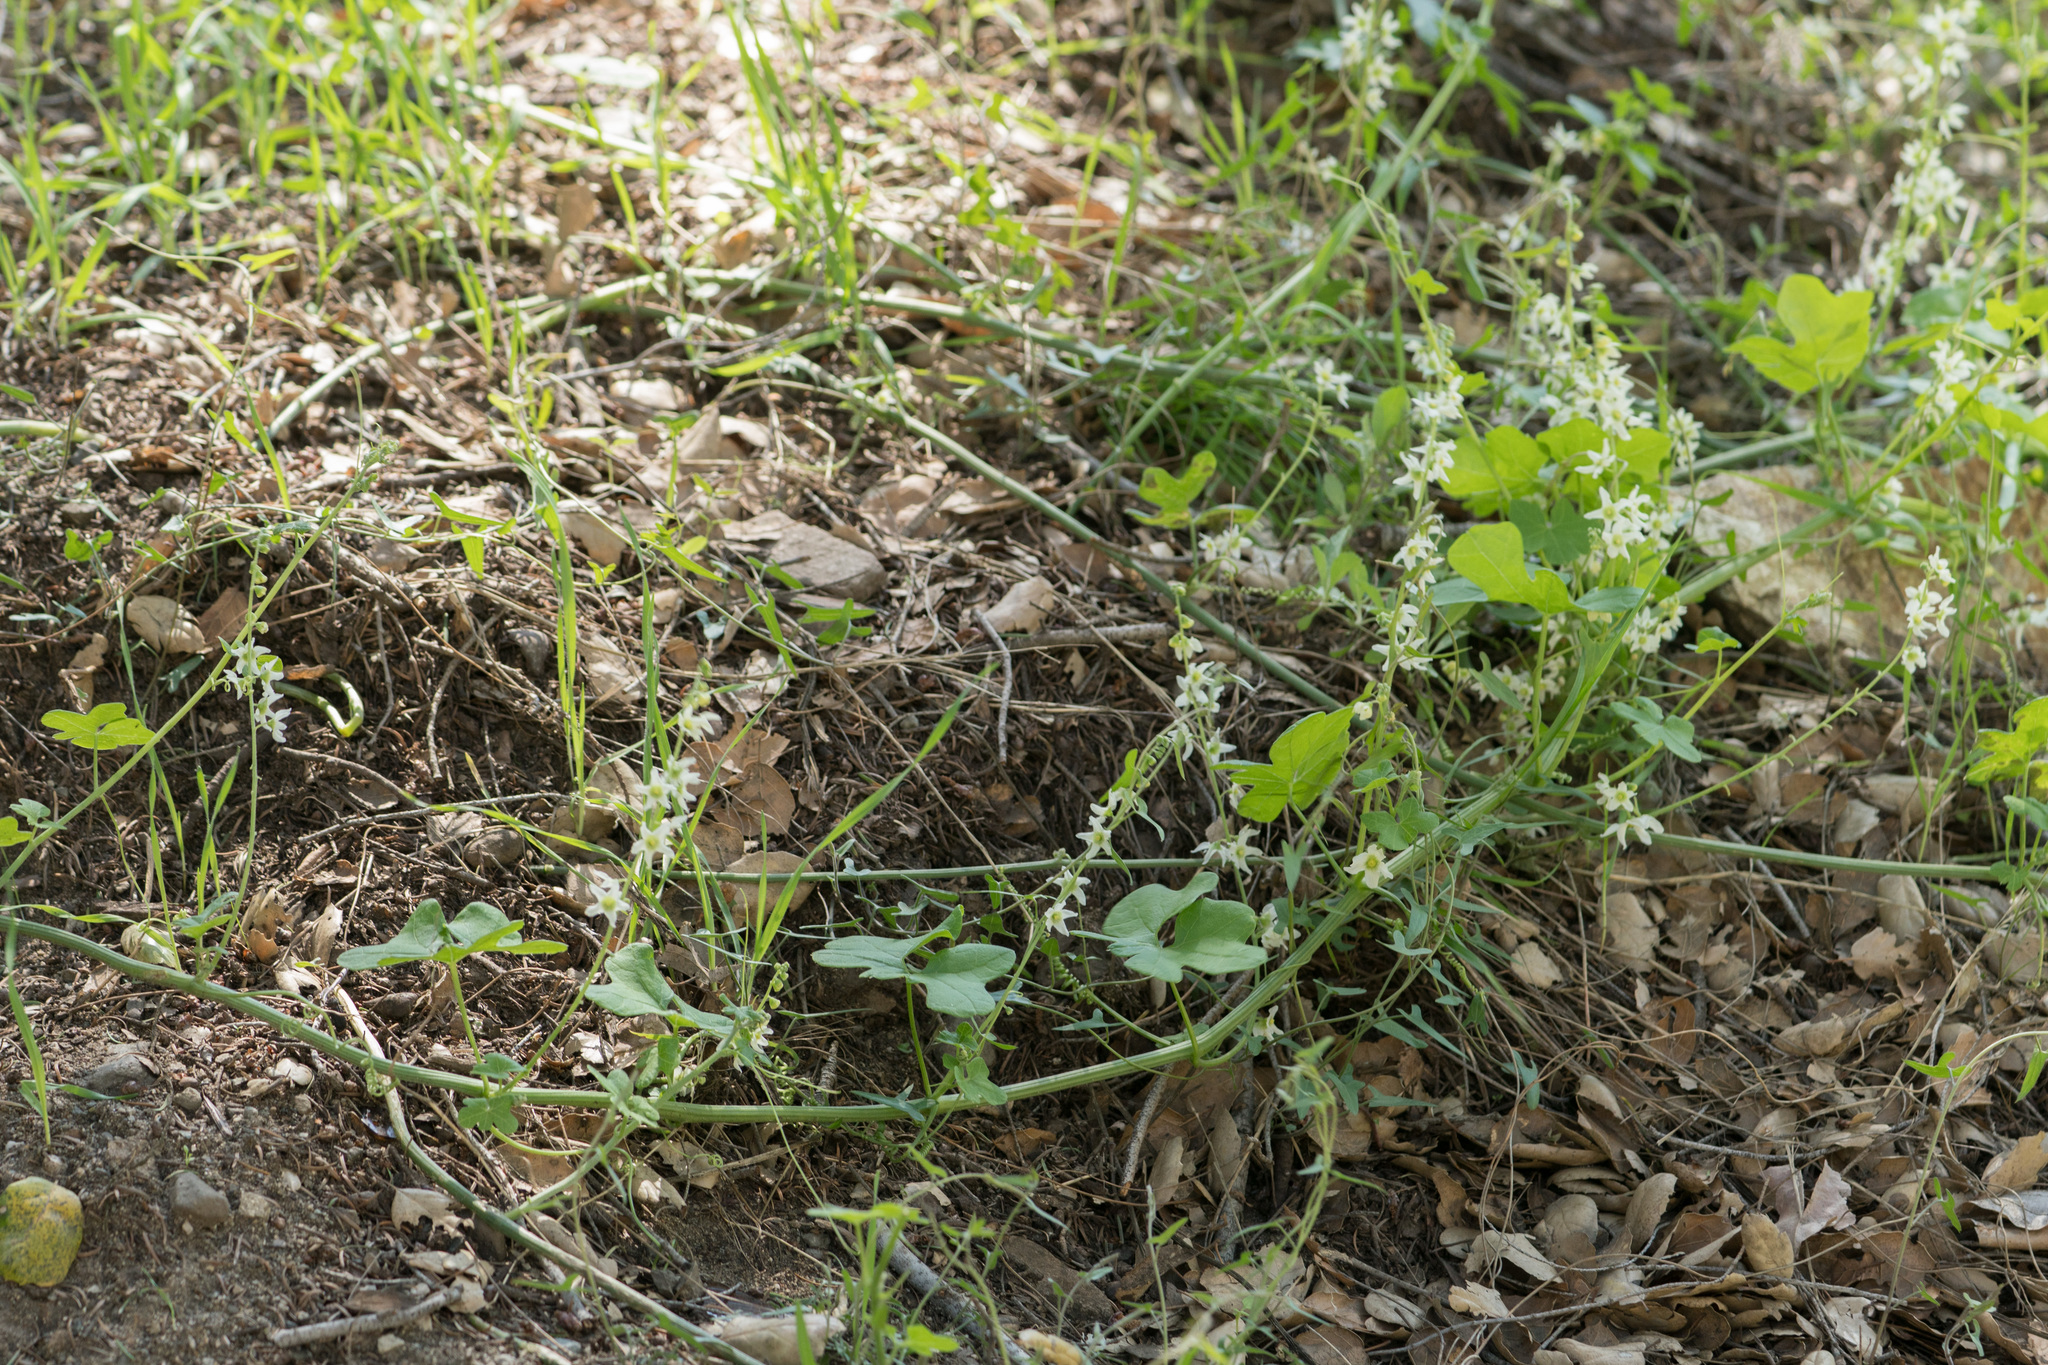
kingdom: Plantae
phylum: Tracheophyta
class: Magnoliopsida
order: Cucurbitales
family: Cucurbitaceae
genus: Marah
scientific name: Marah macrocarpa
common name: Cucamonga manroot
